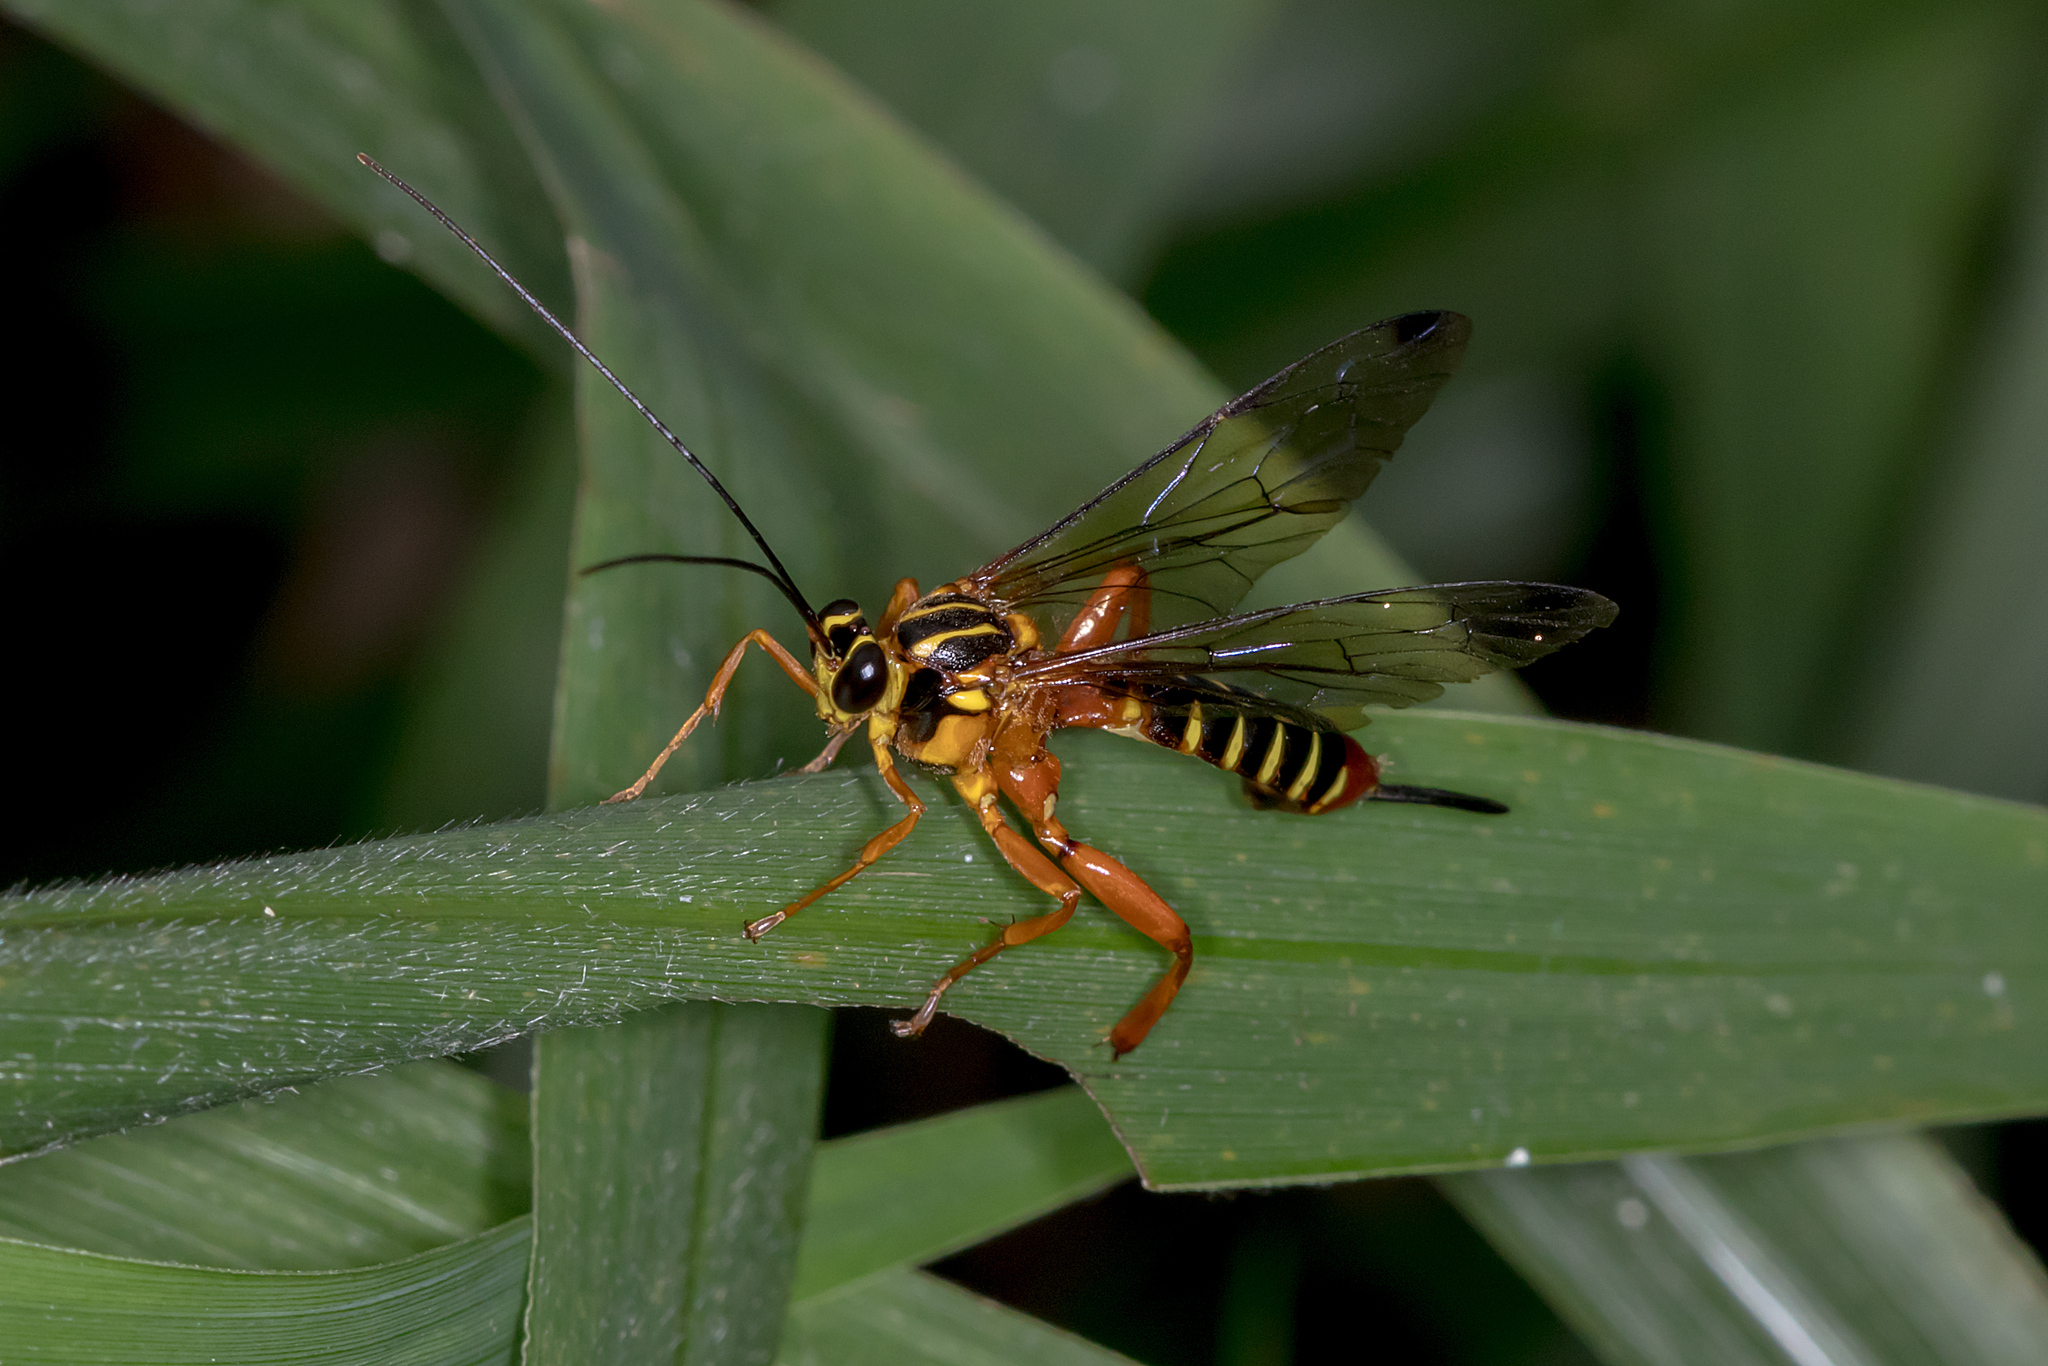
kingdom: Animalia
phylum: Arthropoda
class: Insecta
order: Hymenoptera
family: Ichneumonidae
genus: Echthromorpha
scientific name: Echthromorpha agrestoria
